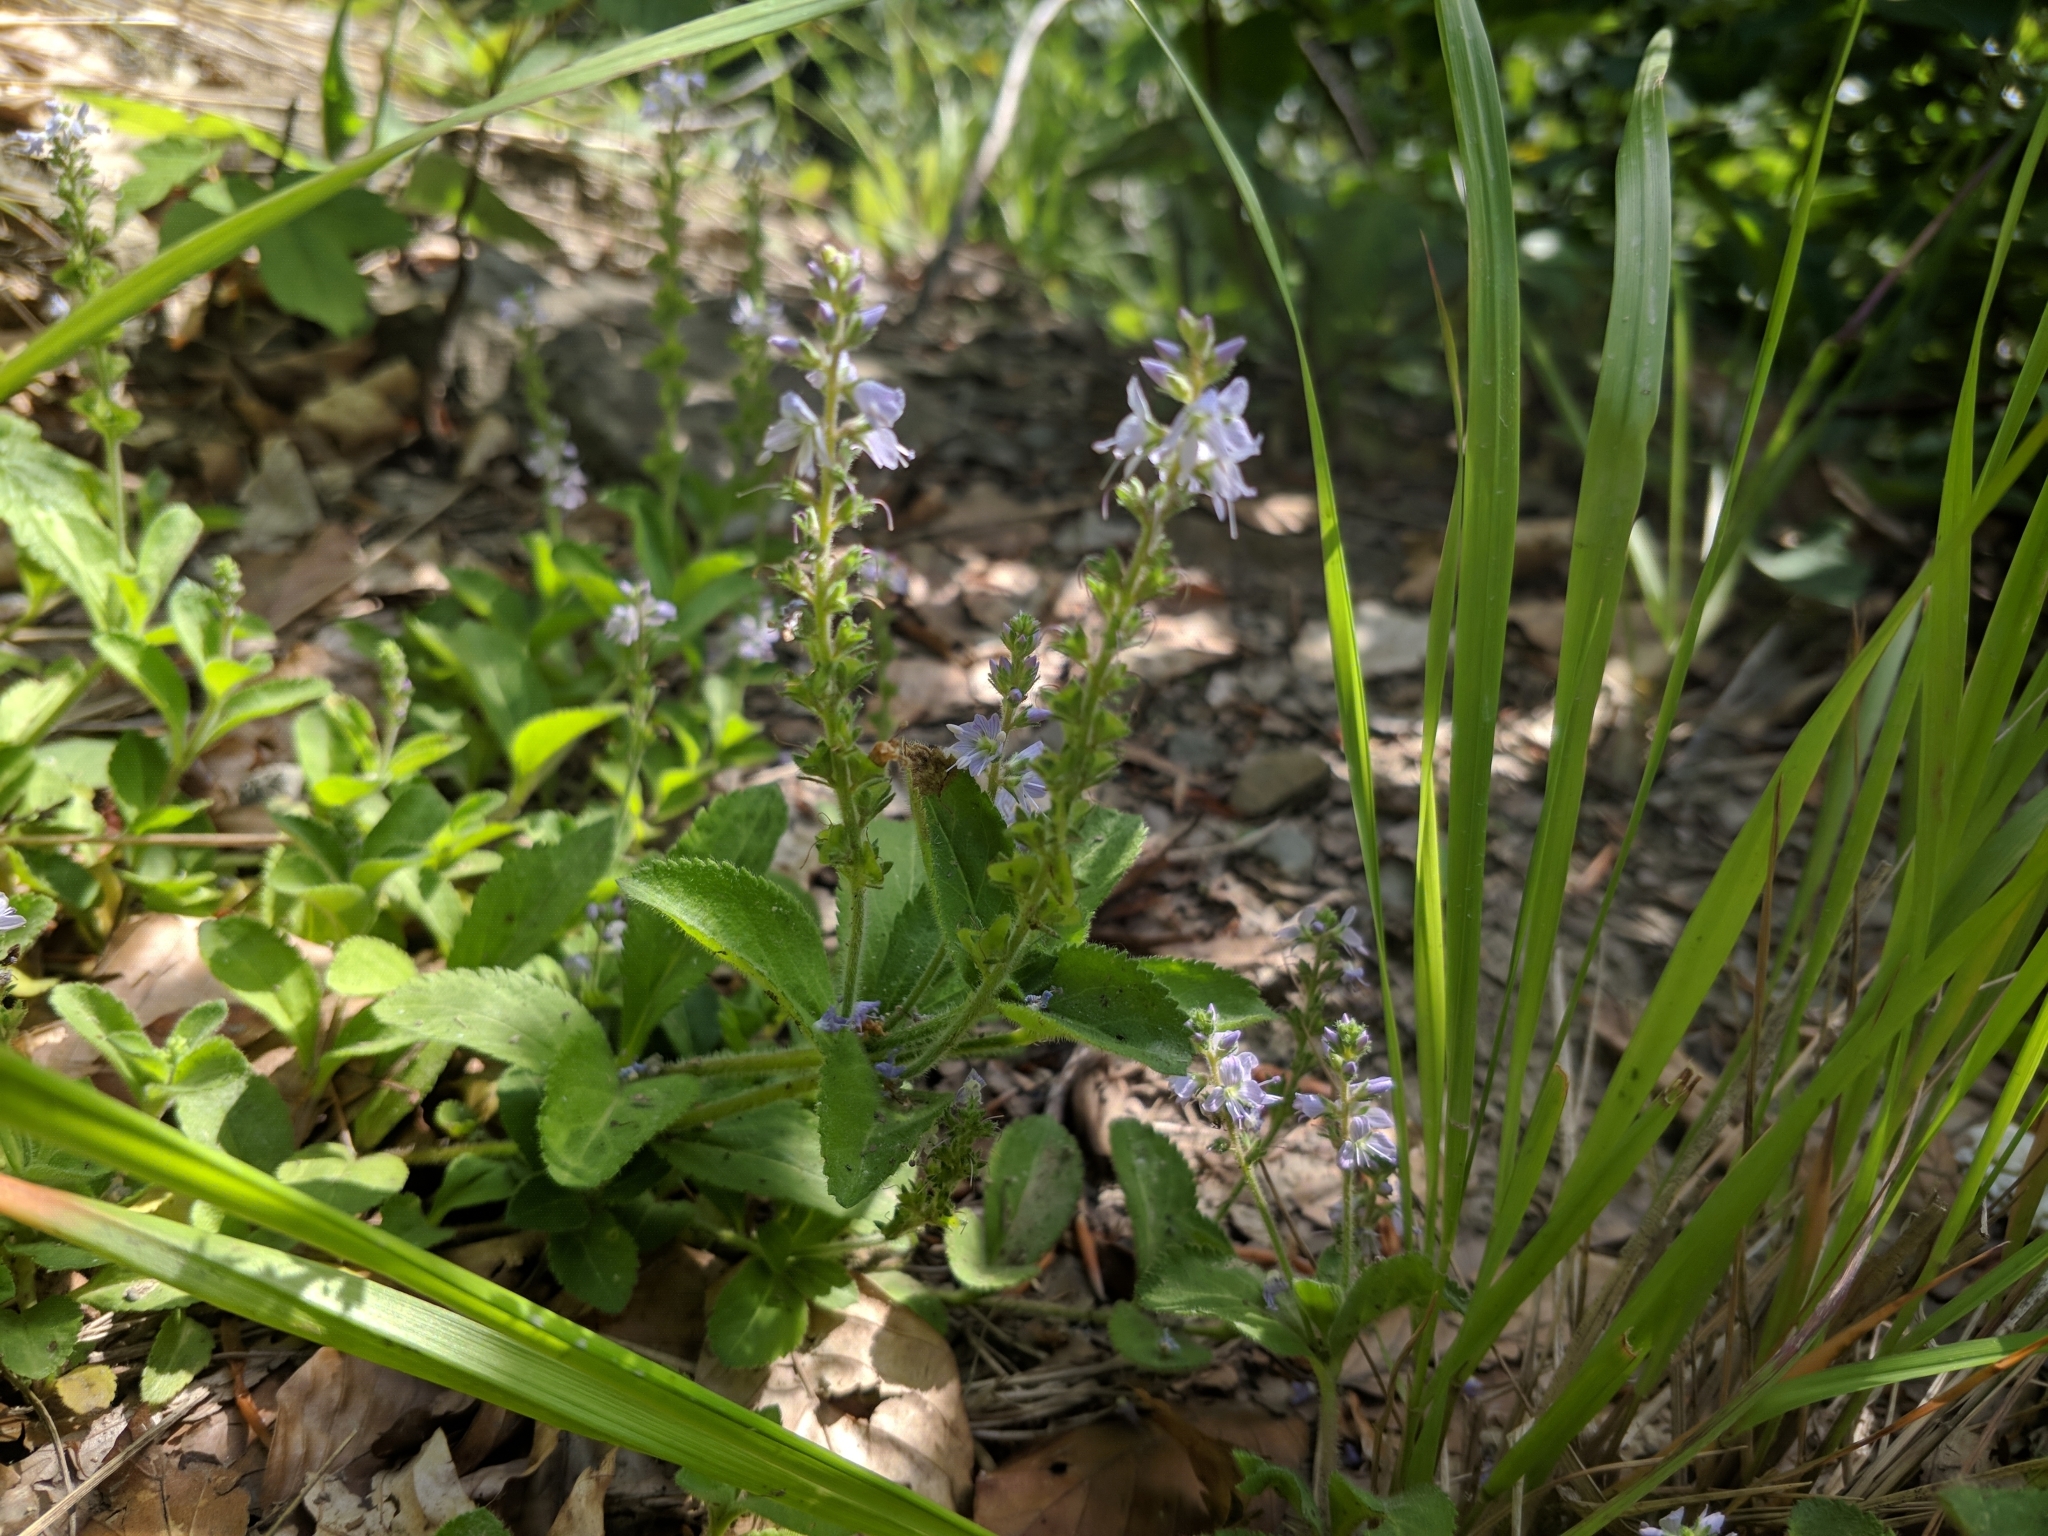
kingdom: Plantae
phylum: Tracheophyta
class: Magnoliopsida
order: Lamiales
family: Plantaginaceae
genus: Veronica
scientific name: Veronica officinalis
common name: Common speedwell
